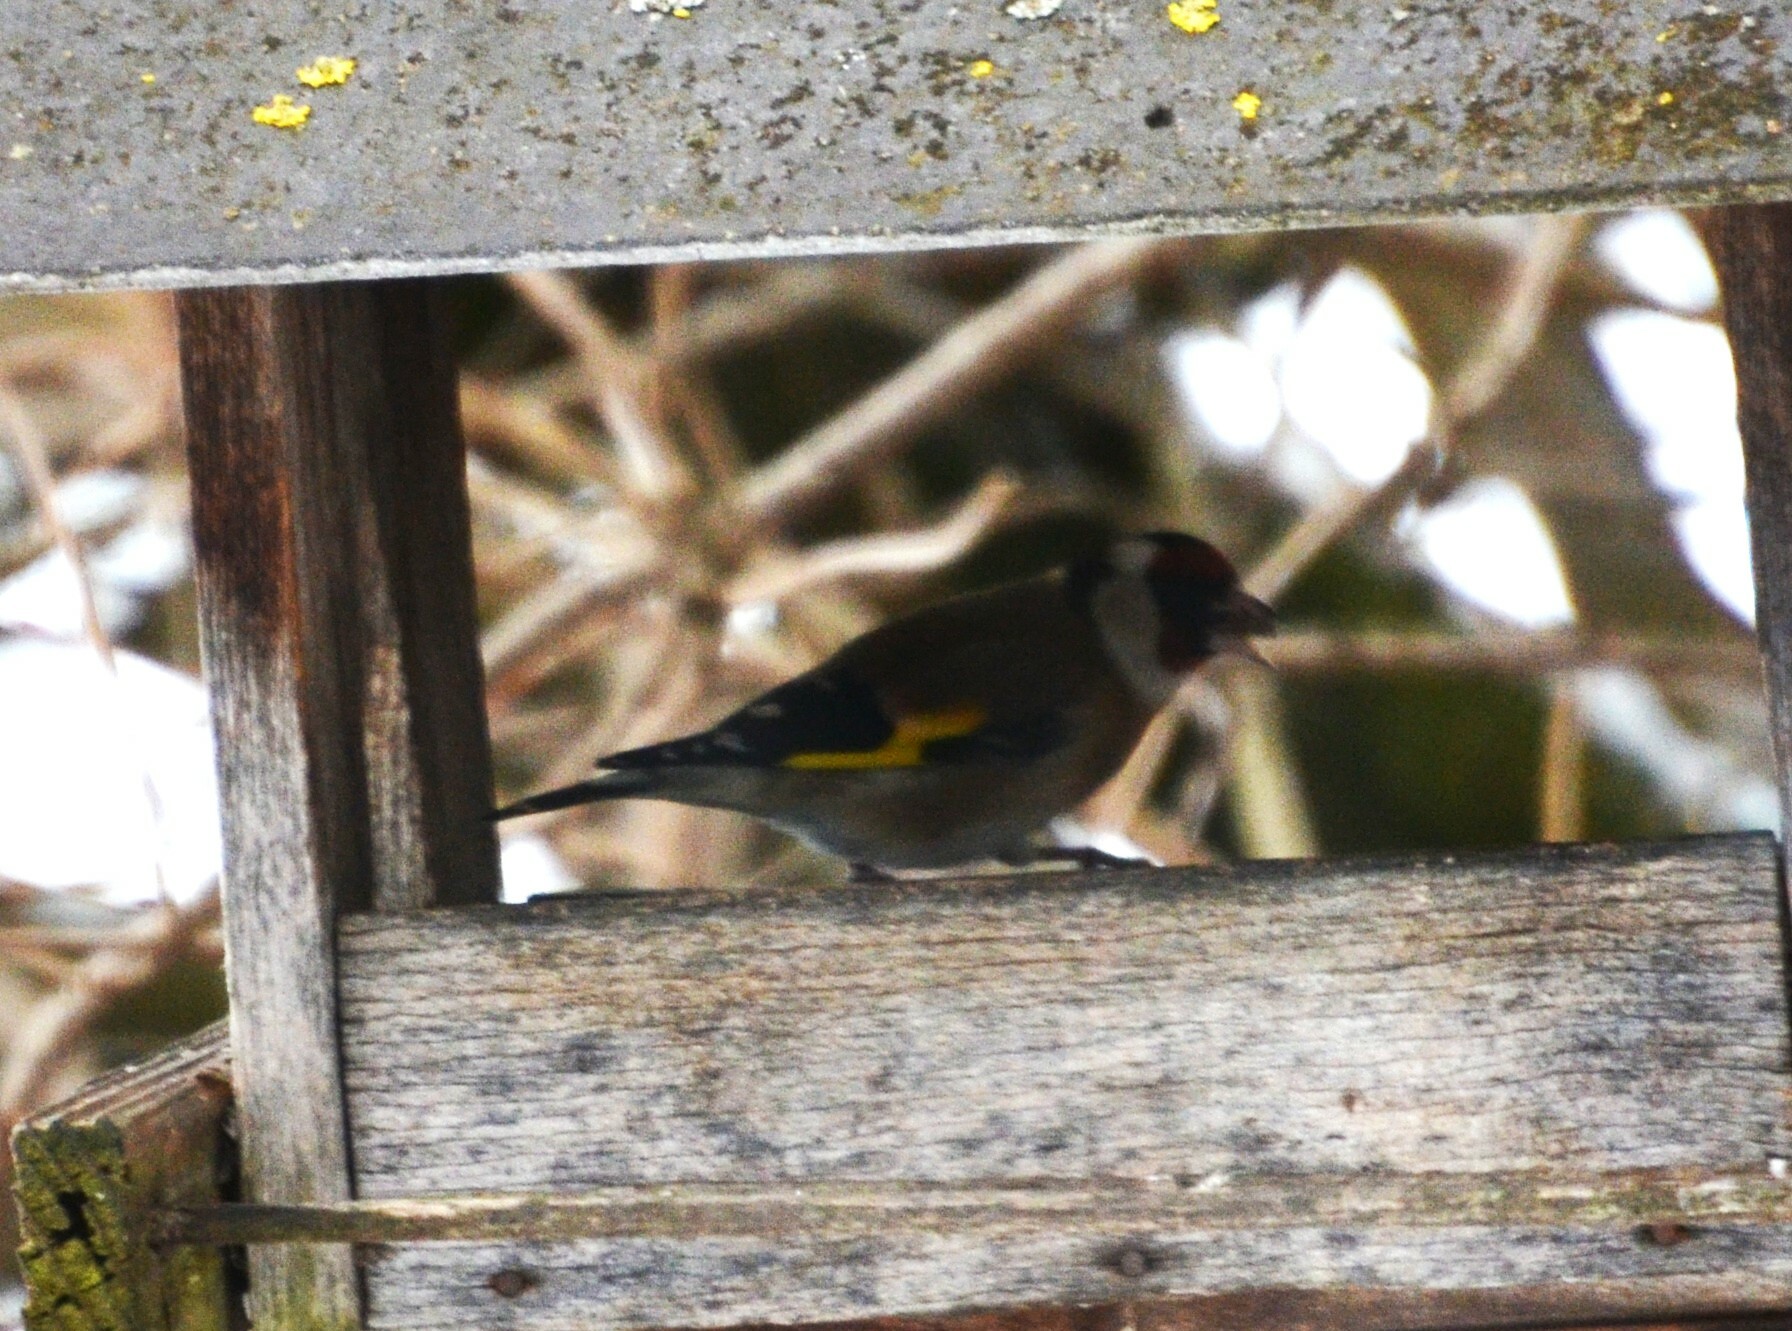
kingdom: Animalia
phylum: Chordata
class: Aves
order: Passeriformes
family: Fringillidae
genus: Carduelis
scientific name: Carduelis carduelis
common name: European goldfinch
